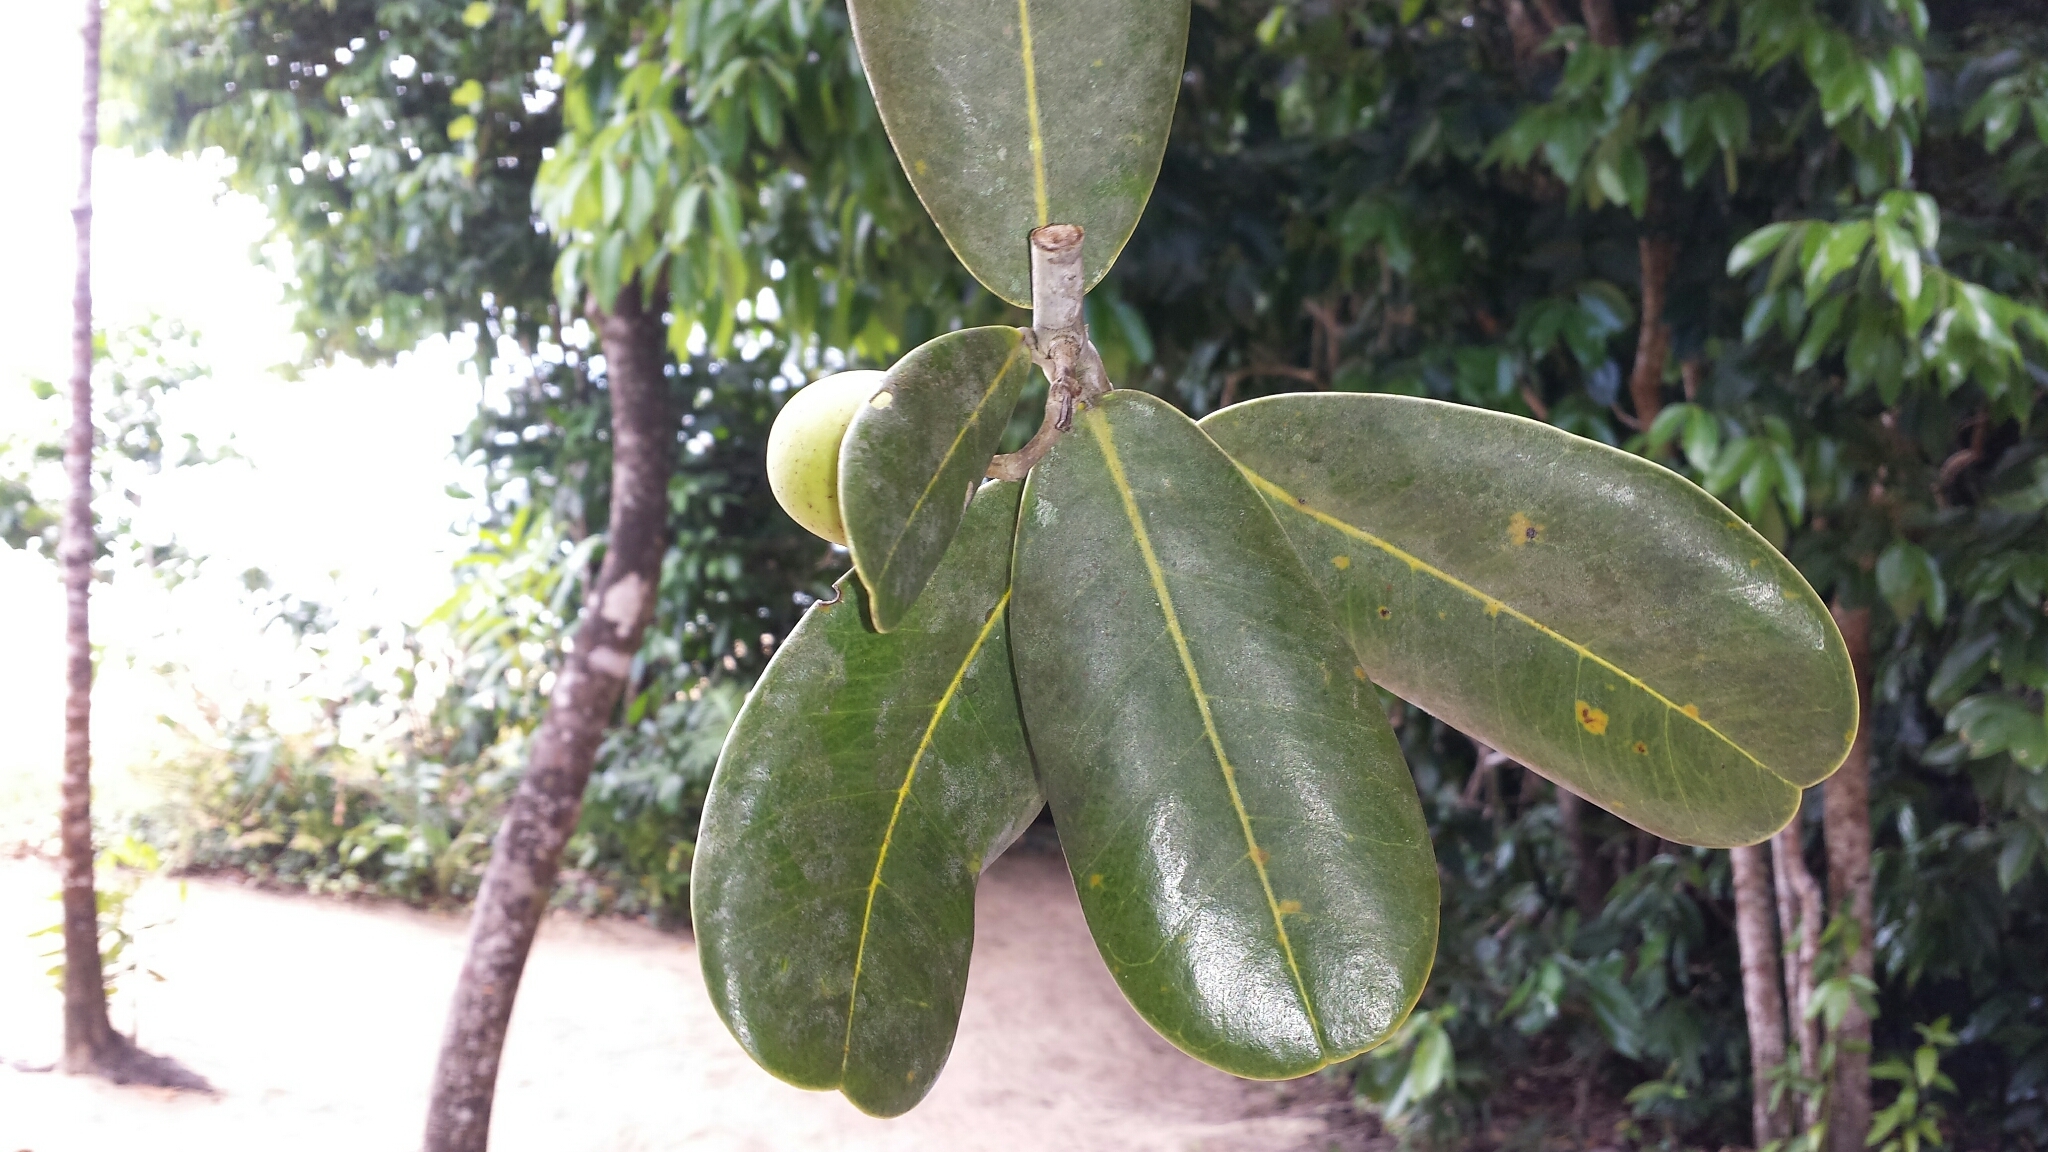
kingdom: Plantae
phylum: Tracheophyta
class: Magnoliopsida
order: Lamiales
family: Oleaceae
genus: Noronhia
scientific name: Noronhia emarginata
